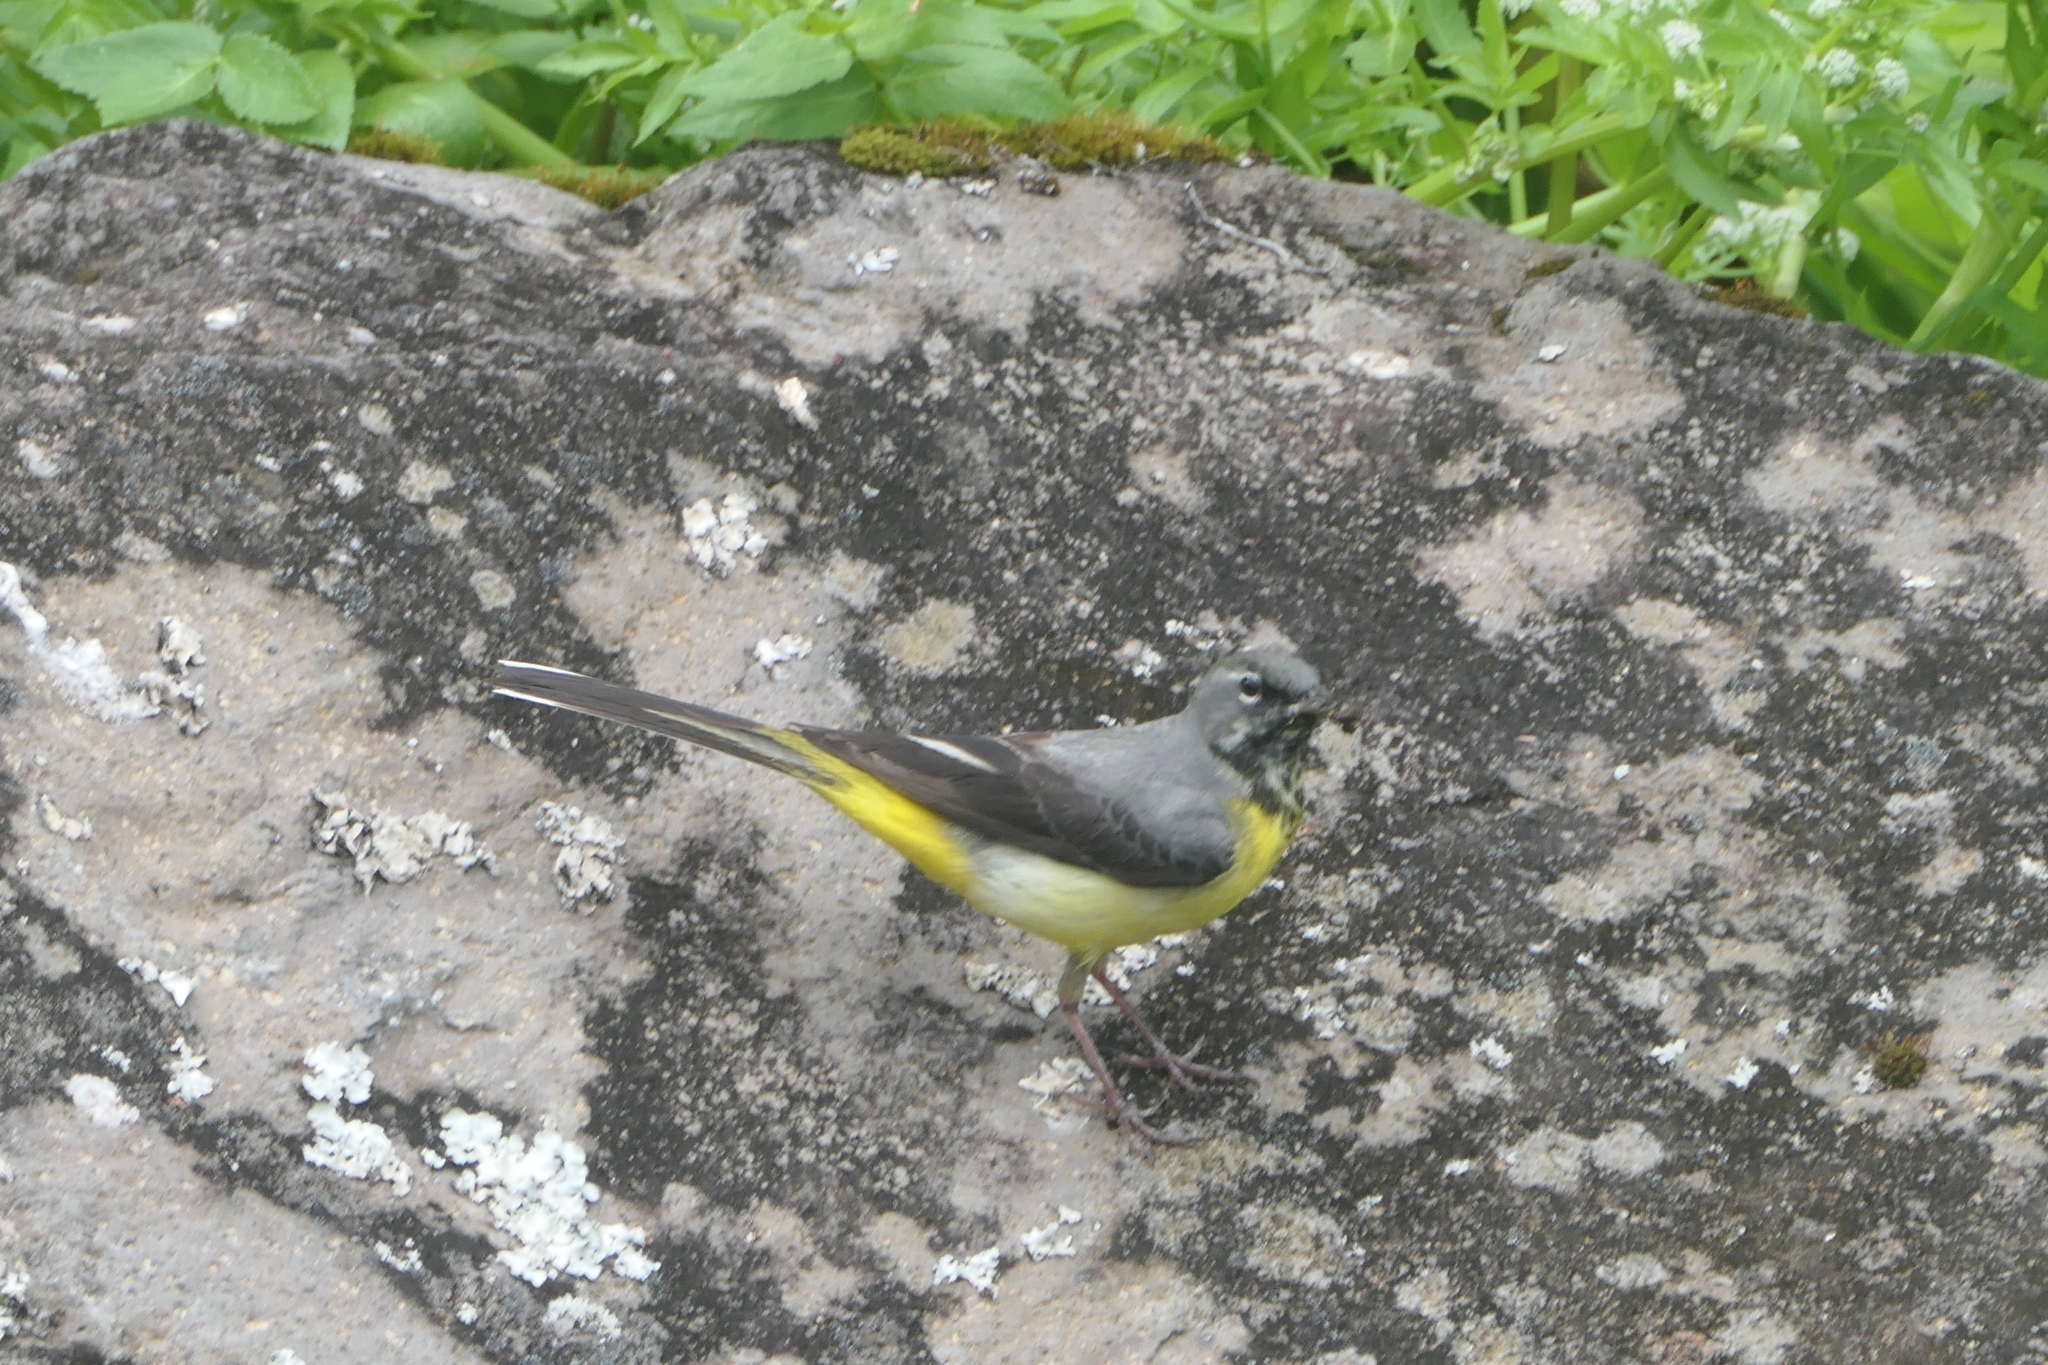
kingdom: Animalia
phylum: Chordata
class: Aves
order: Passeriformes
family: Motacillidae
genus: Motacilla
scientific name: Motacilla cinerea
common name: Grey wagtail
